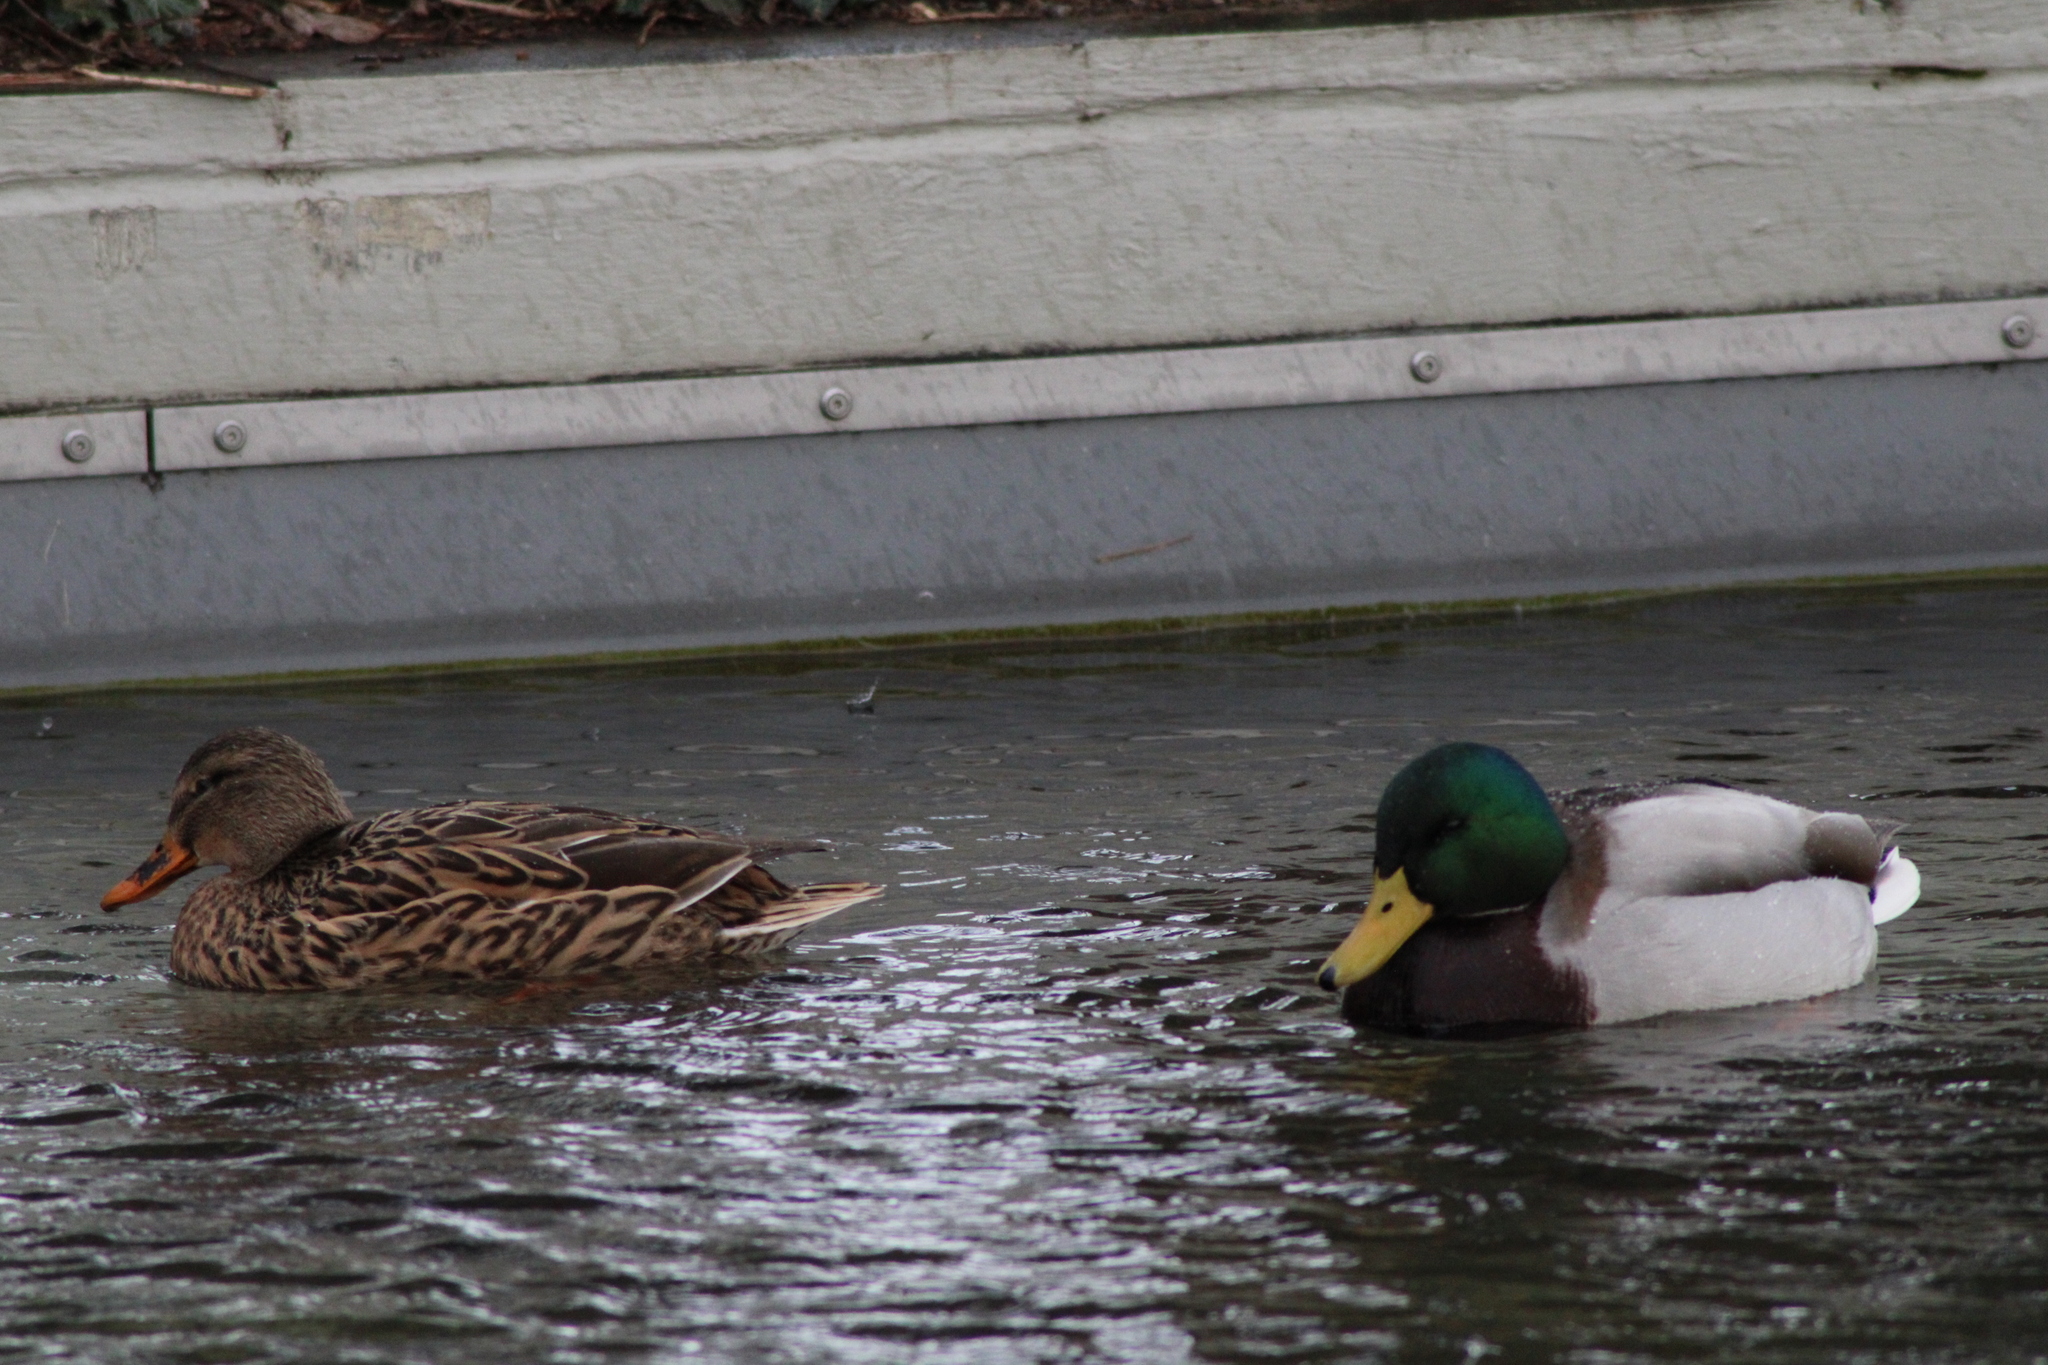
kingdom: Animalia
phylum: Chordata
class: Aves
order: Anseriformes
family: Anatidae
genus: Anas
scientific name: Anas platyrhynchos
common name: Mallard
